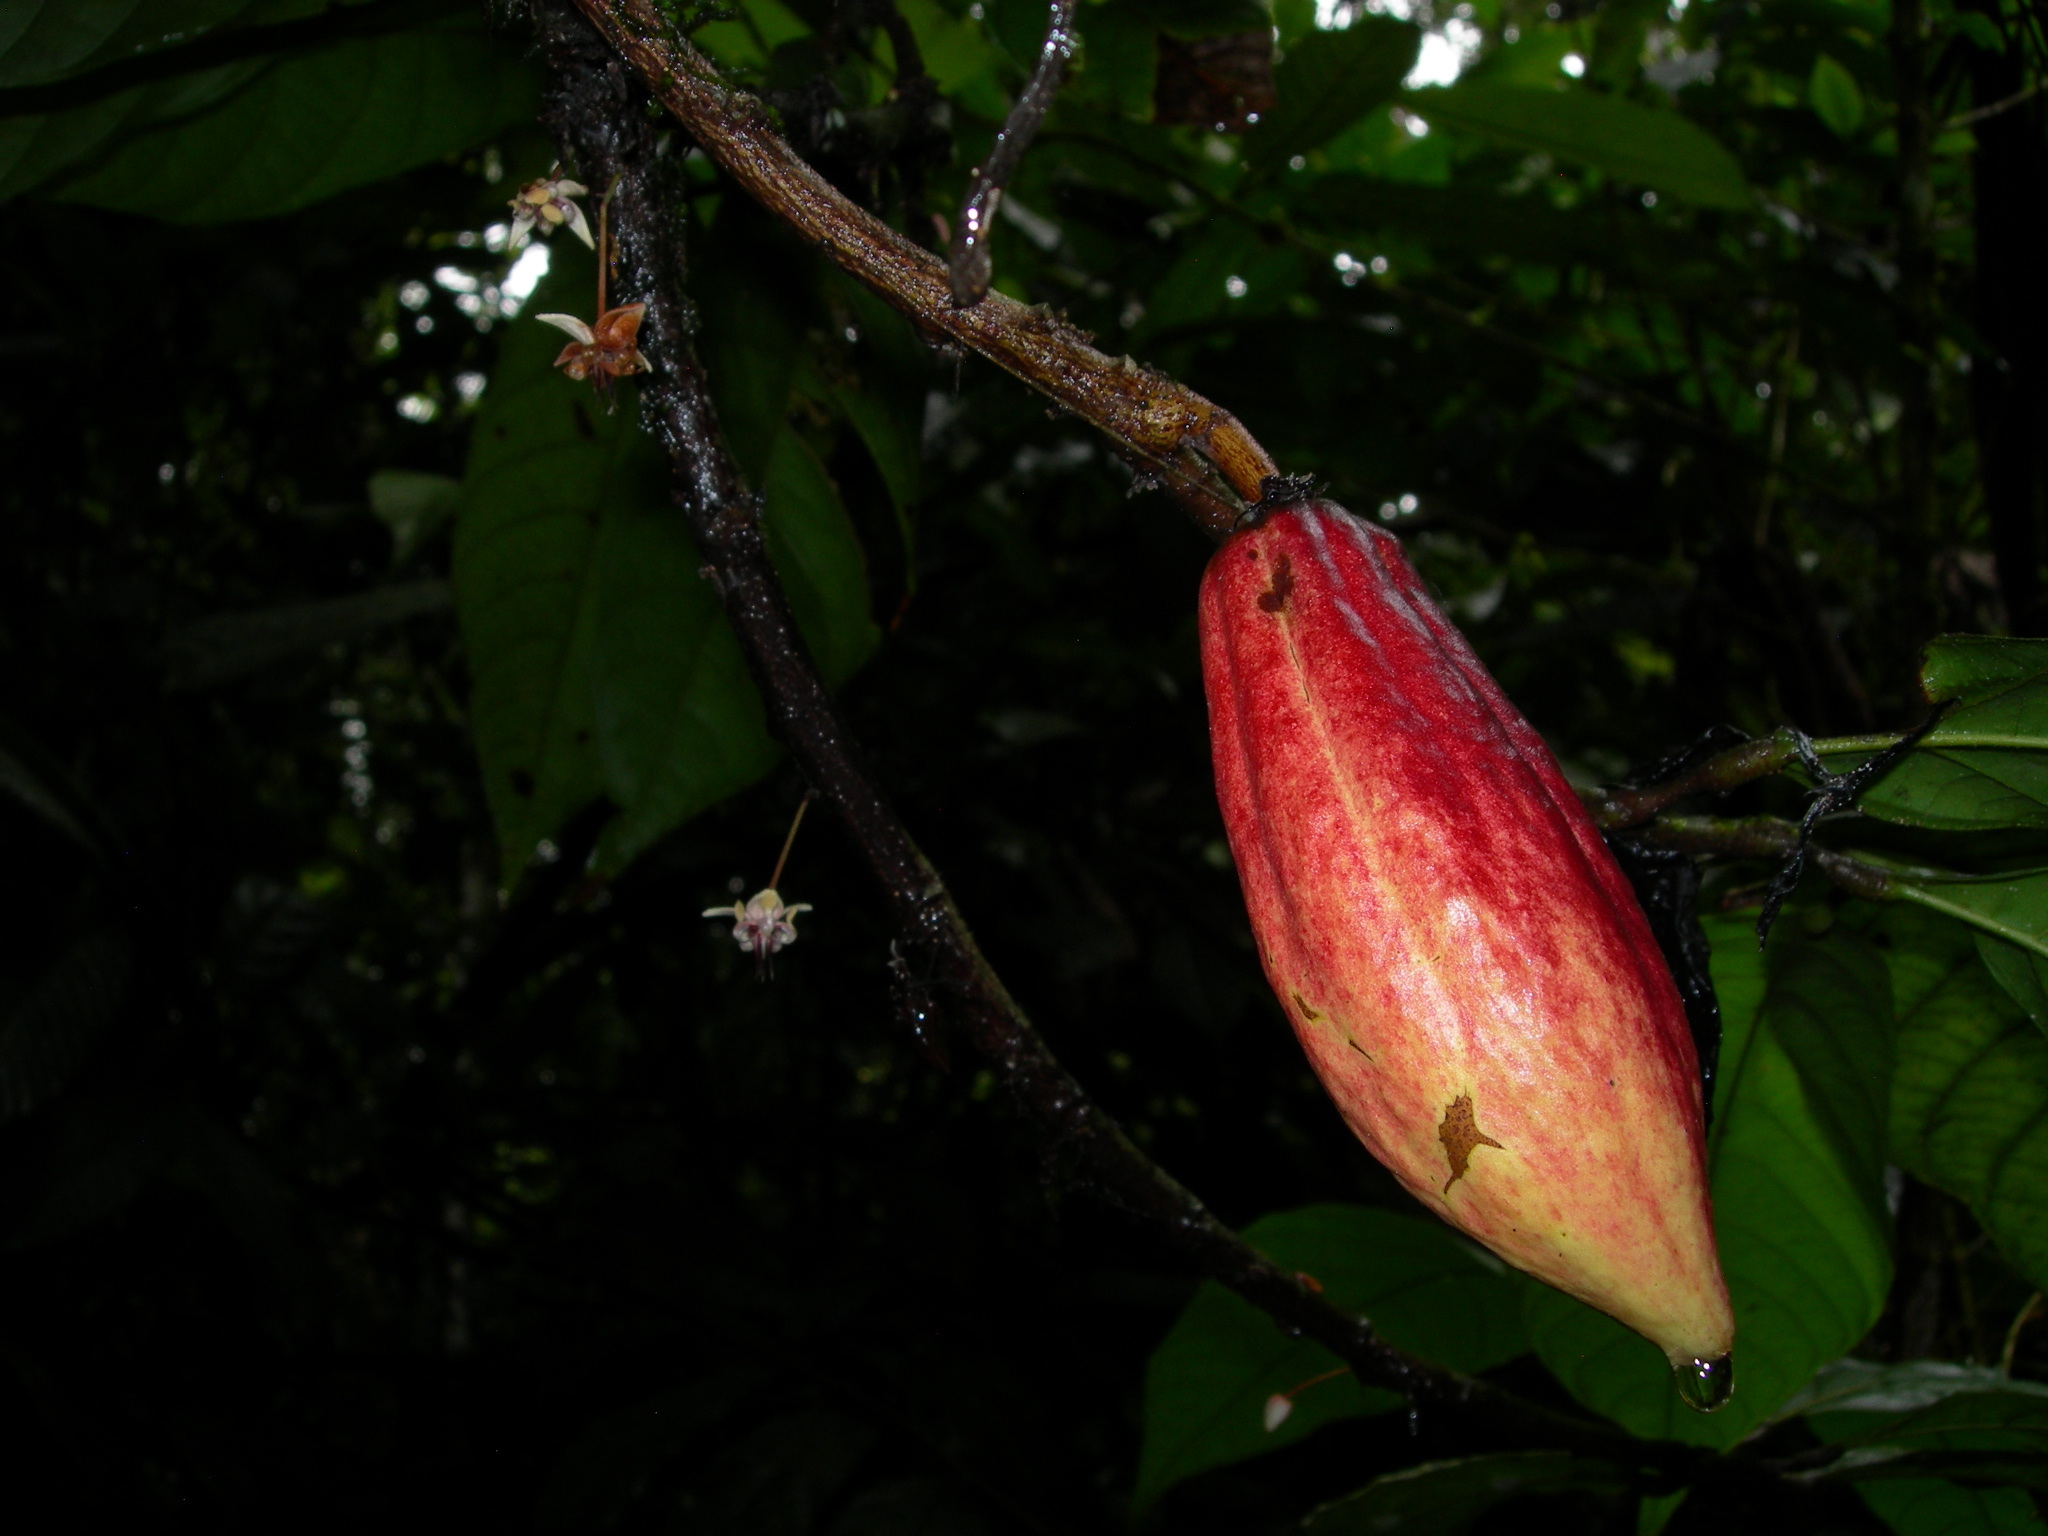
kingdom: Plantae
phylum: Tracheophyta
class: Magnoliopsida
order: Malvales
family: Malvaceae
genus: Theobroma
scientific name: Theobroma cacao
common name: Cocoa
